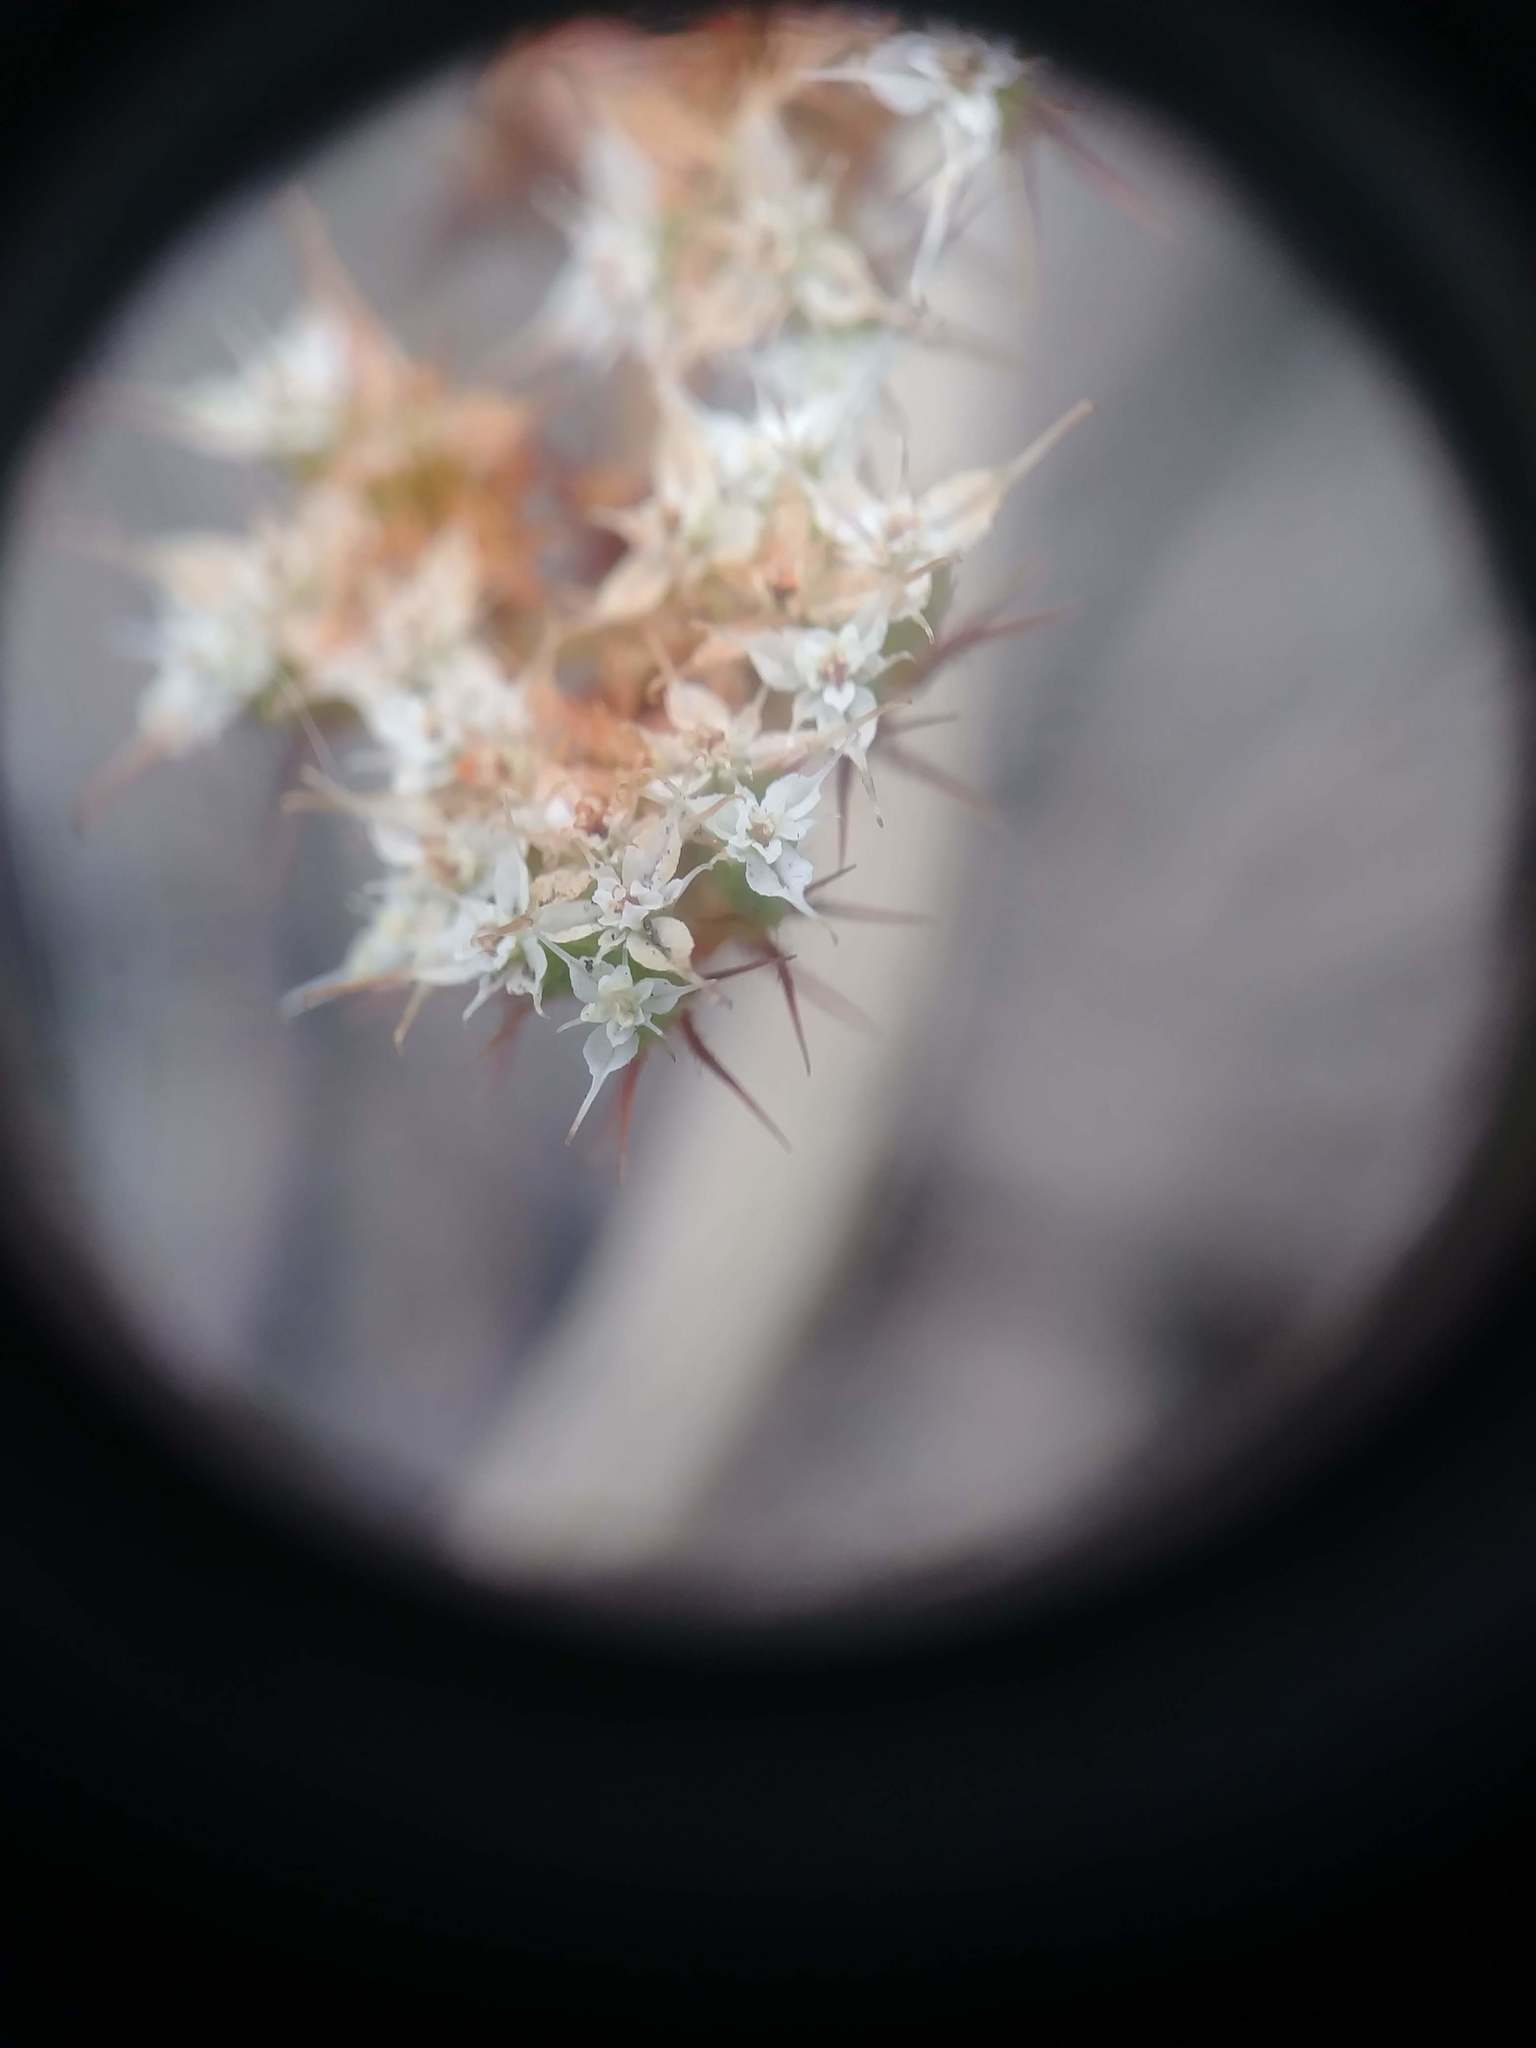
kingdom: Plantae
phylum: Tracheophyta
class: Magnoliopsida
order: Caryophyllales
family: Polygonaceae
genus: Chorizanthe
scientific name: Chorizanthe diffusa
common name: Diffuse spineflower
